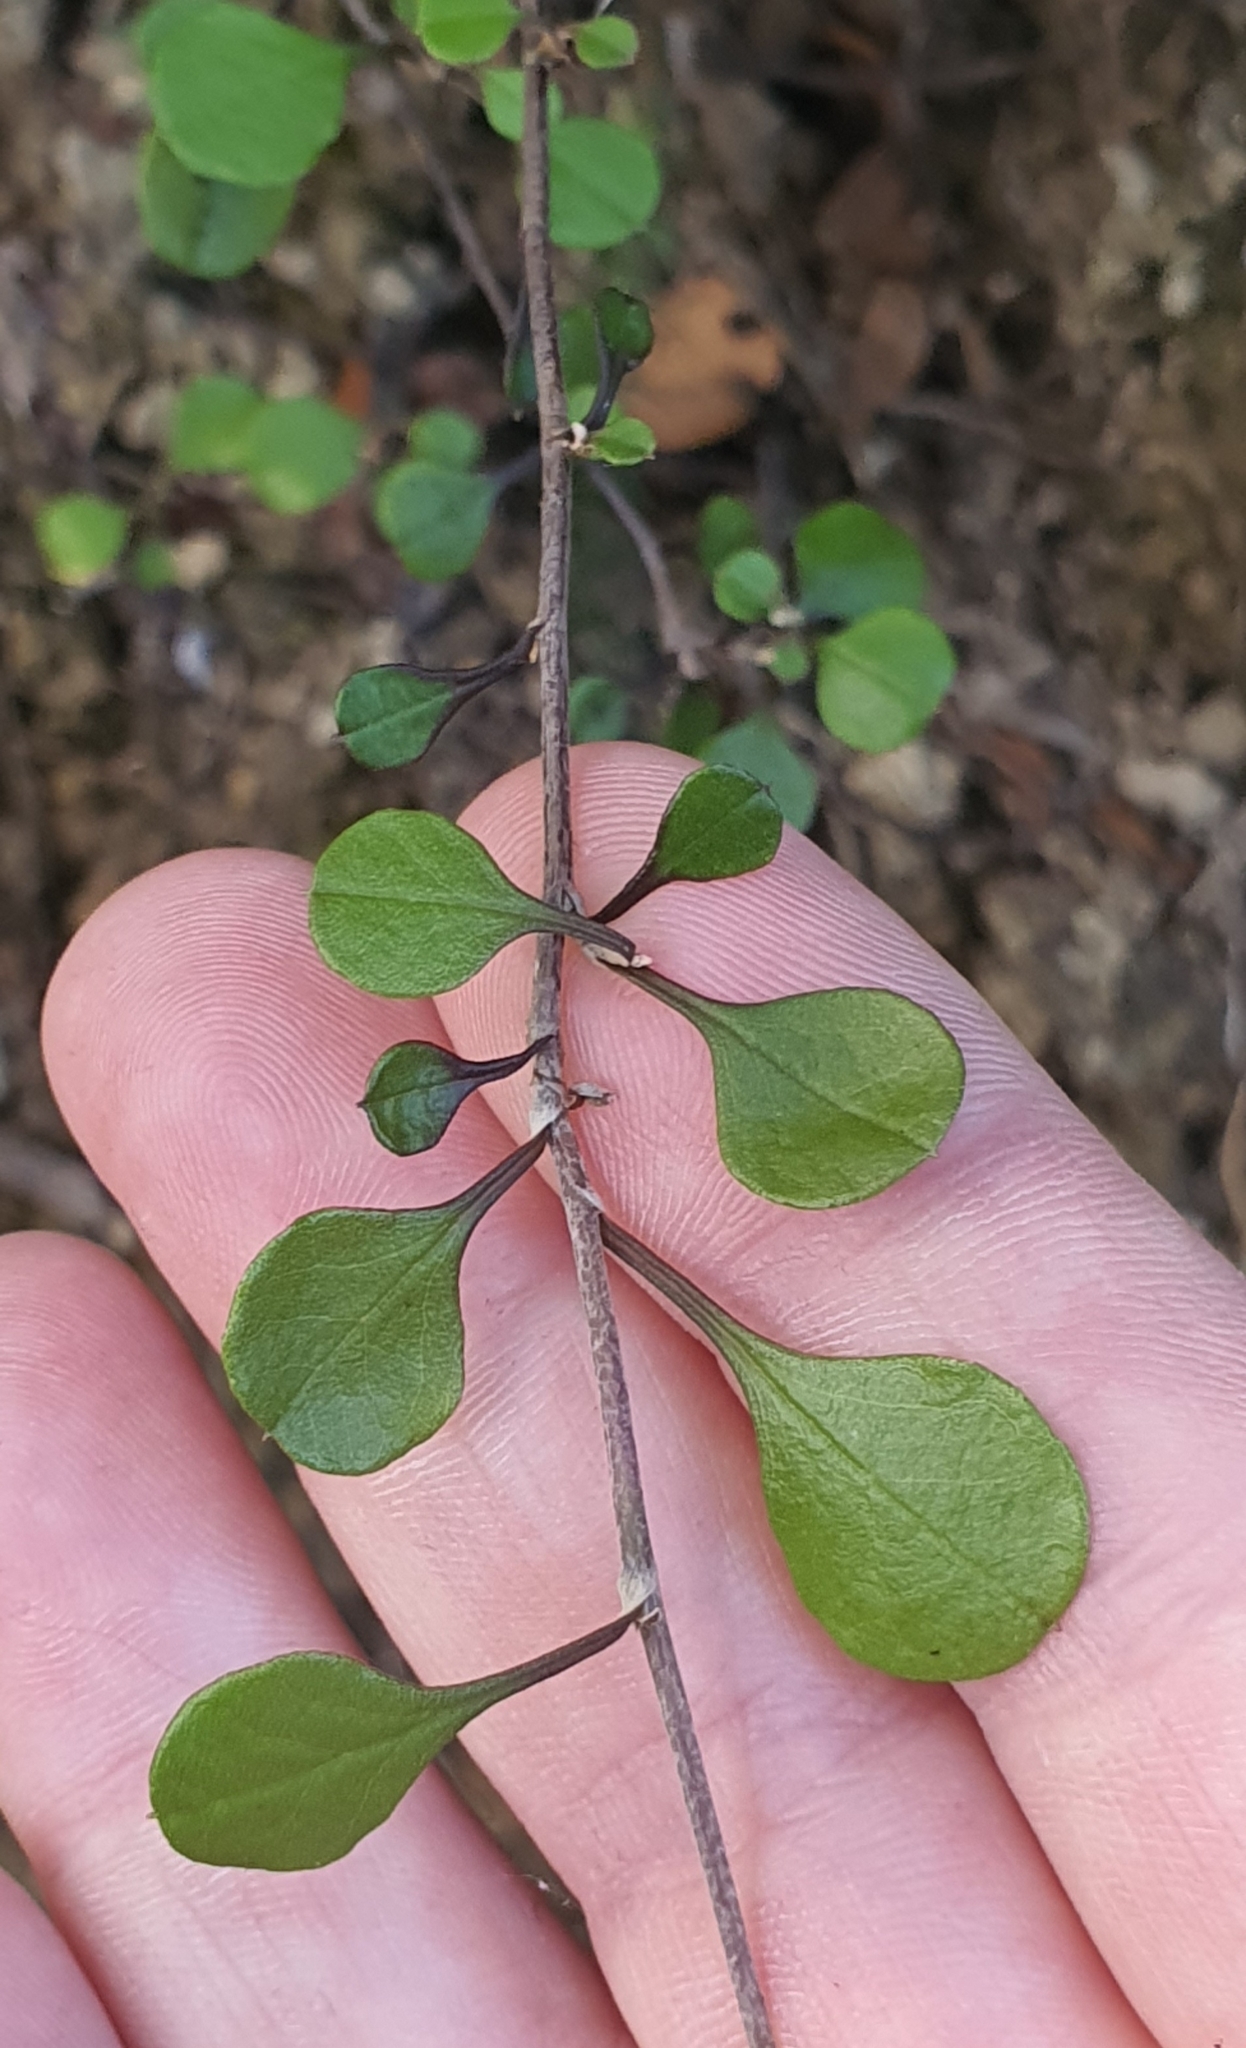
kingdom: Plantae
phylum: Tracheophyta
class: Magnoliopsida
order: Asterales
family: Asteraceae
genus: Ozothamnus
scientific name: Ozothamnus glomeratus
